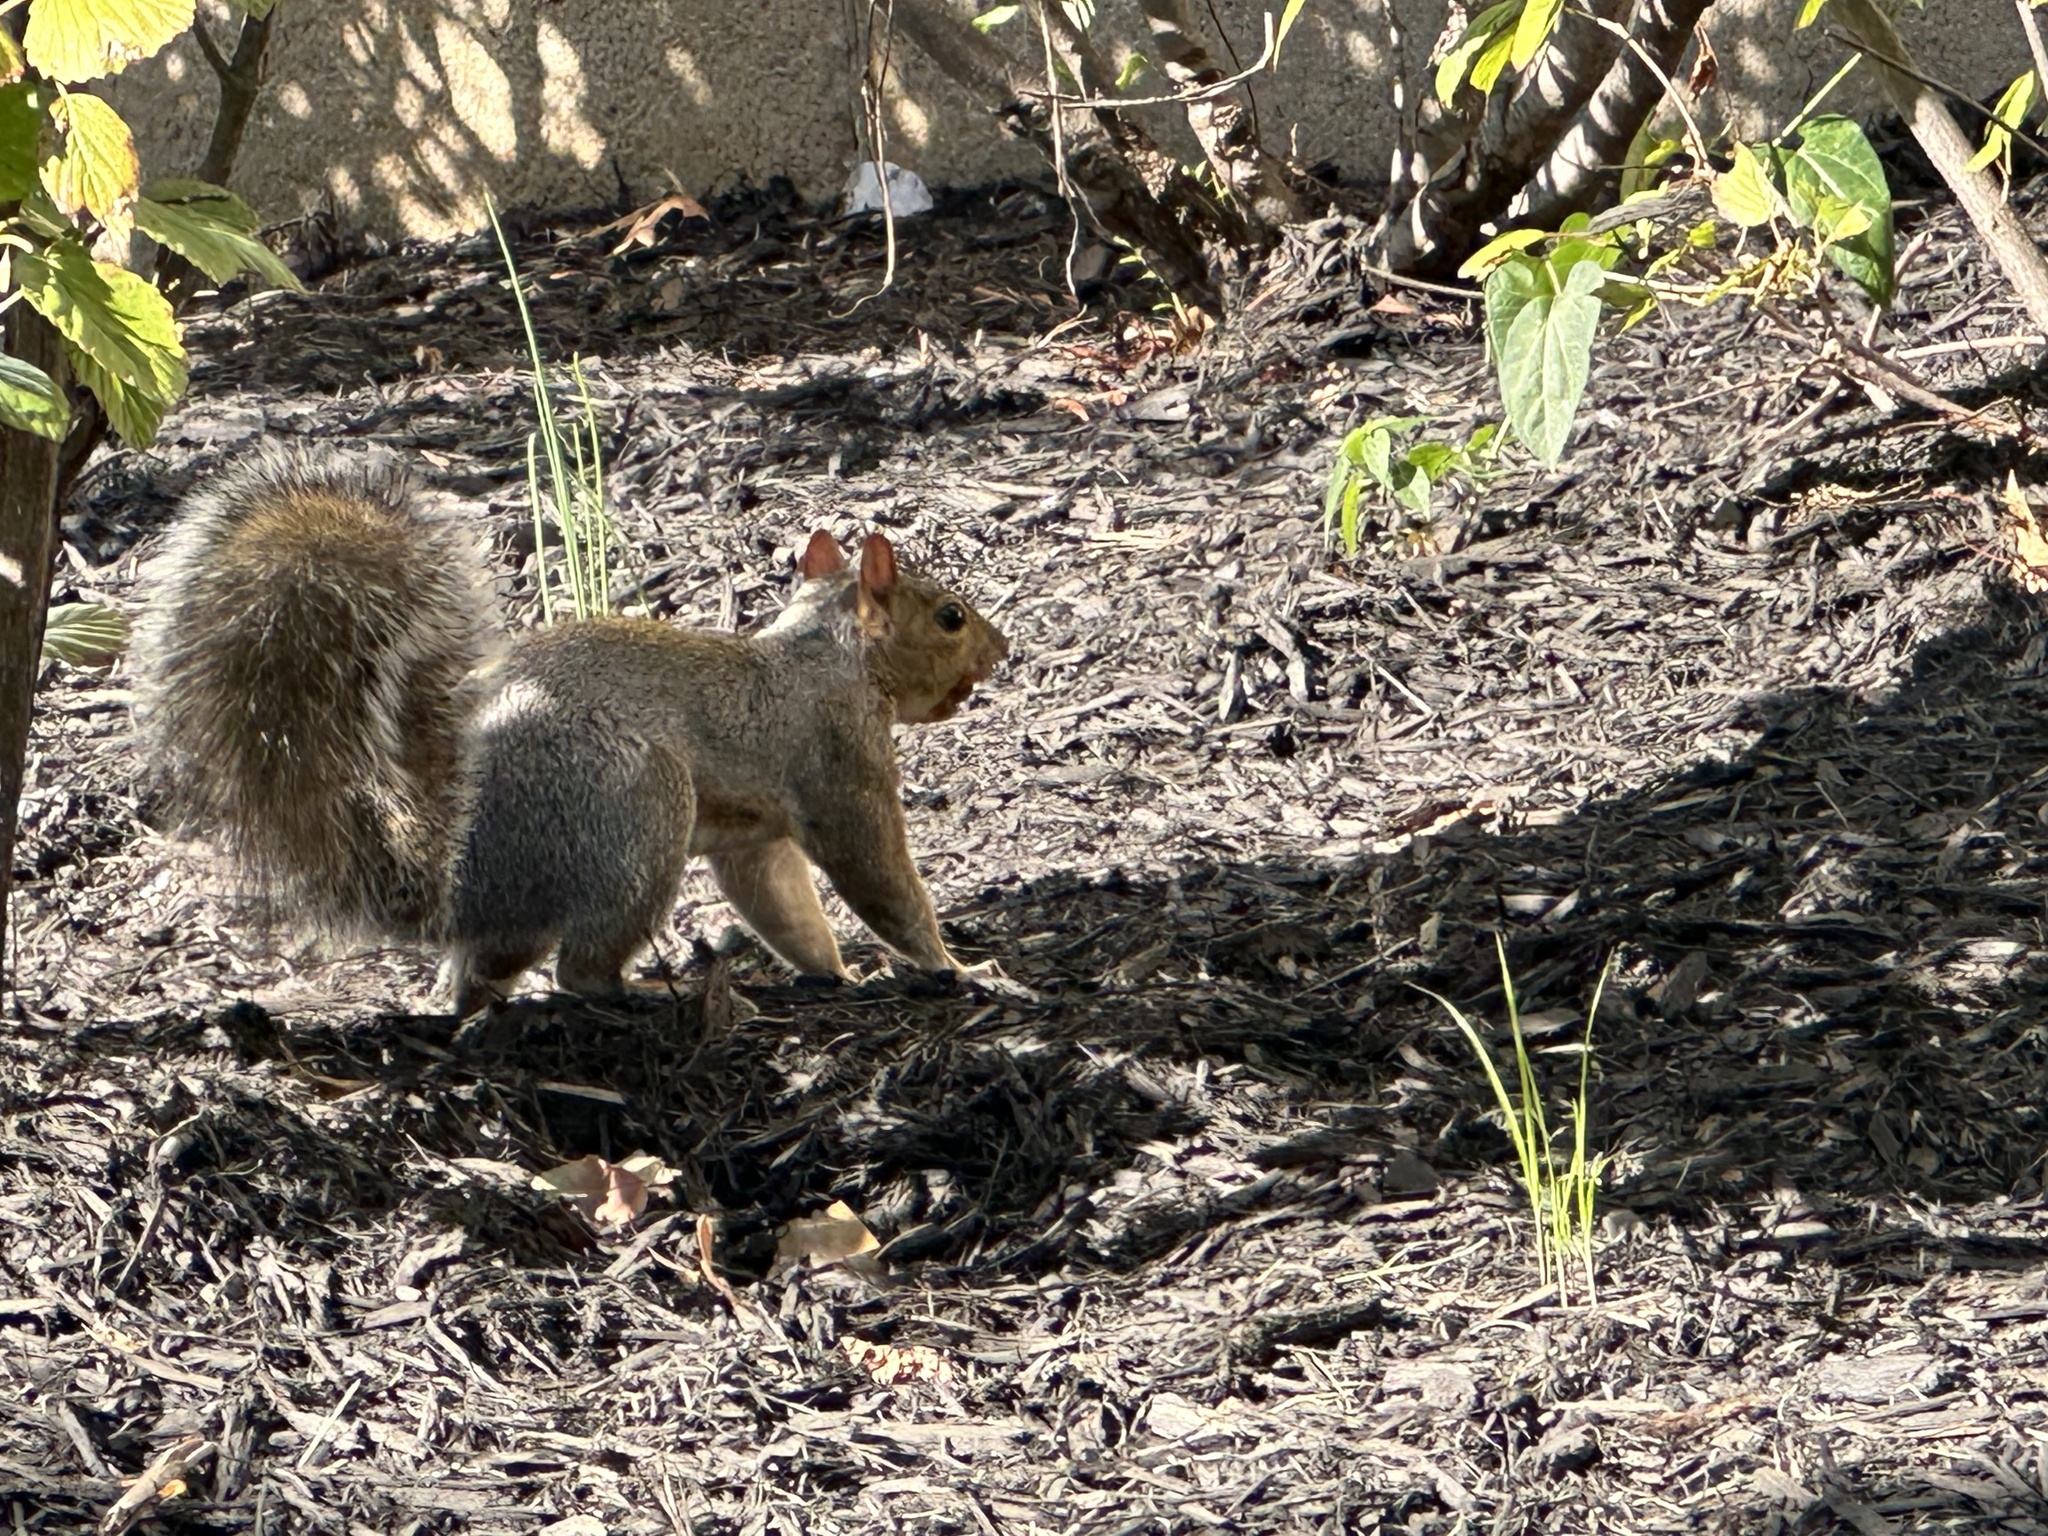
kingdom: Animalia
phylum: Chordata
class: Mammalia
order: Rodentia
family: Sciuridae
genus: Sciurus
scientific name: Sciurus carolinensis
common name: Eastern gray squirrel
